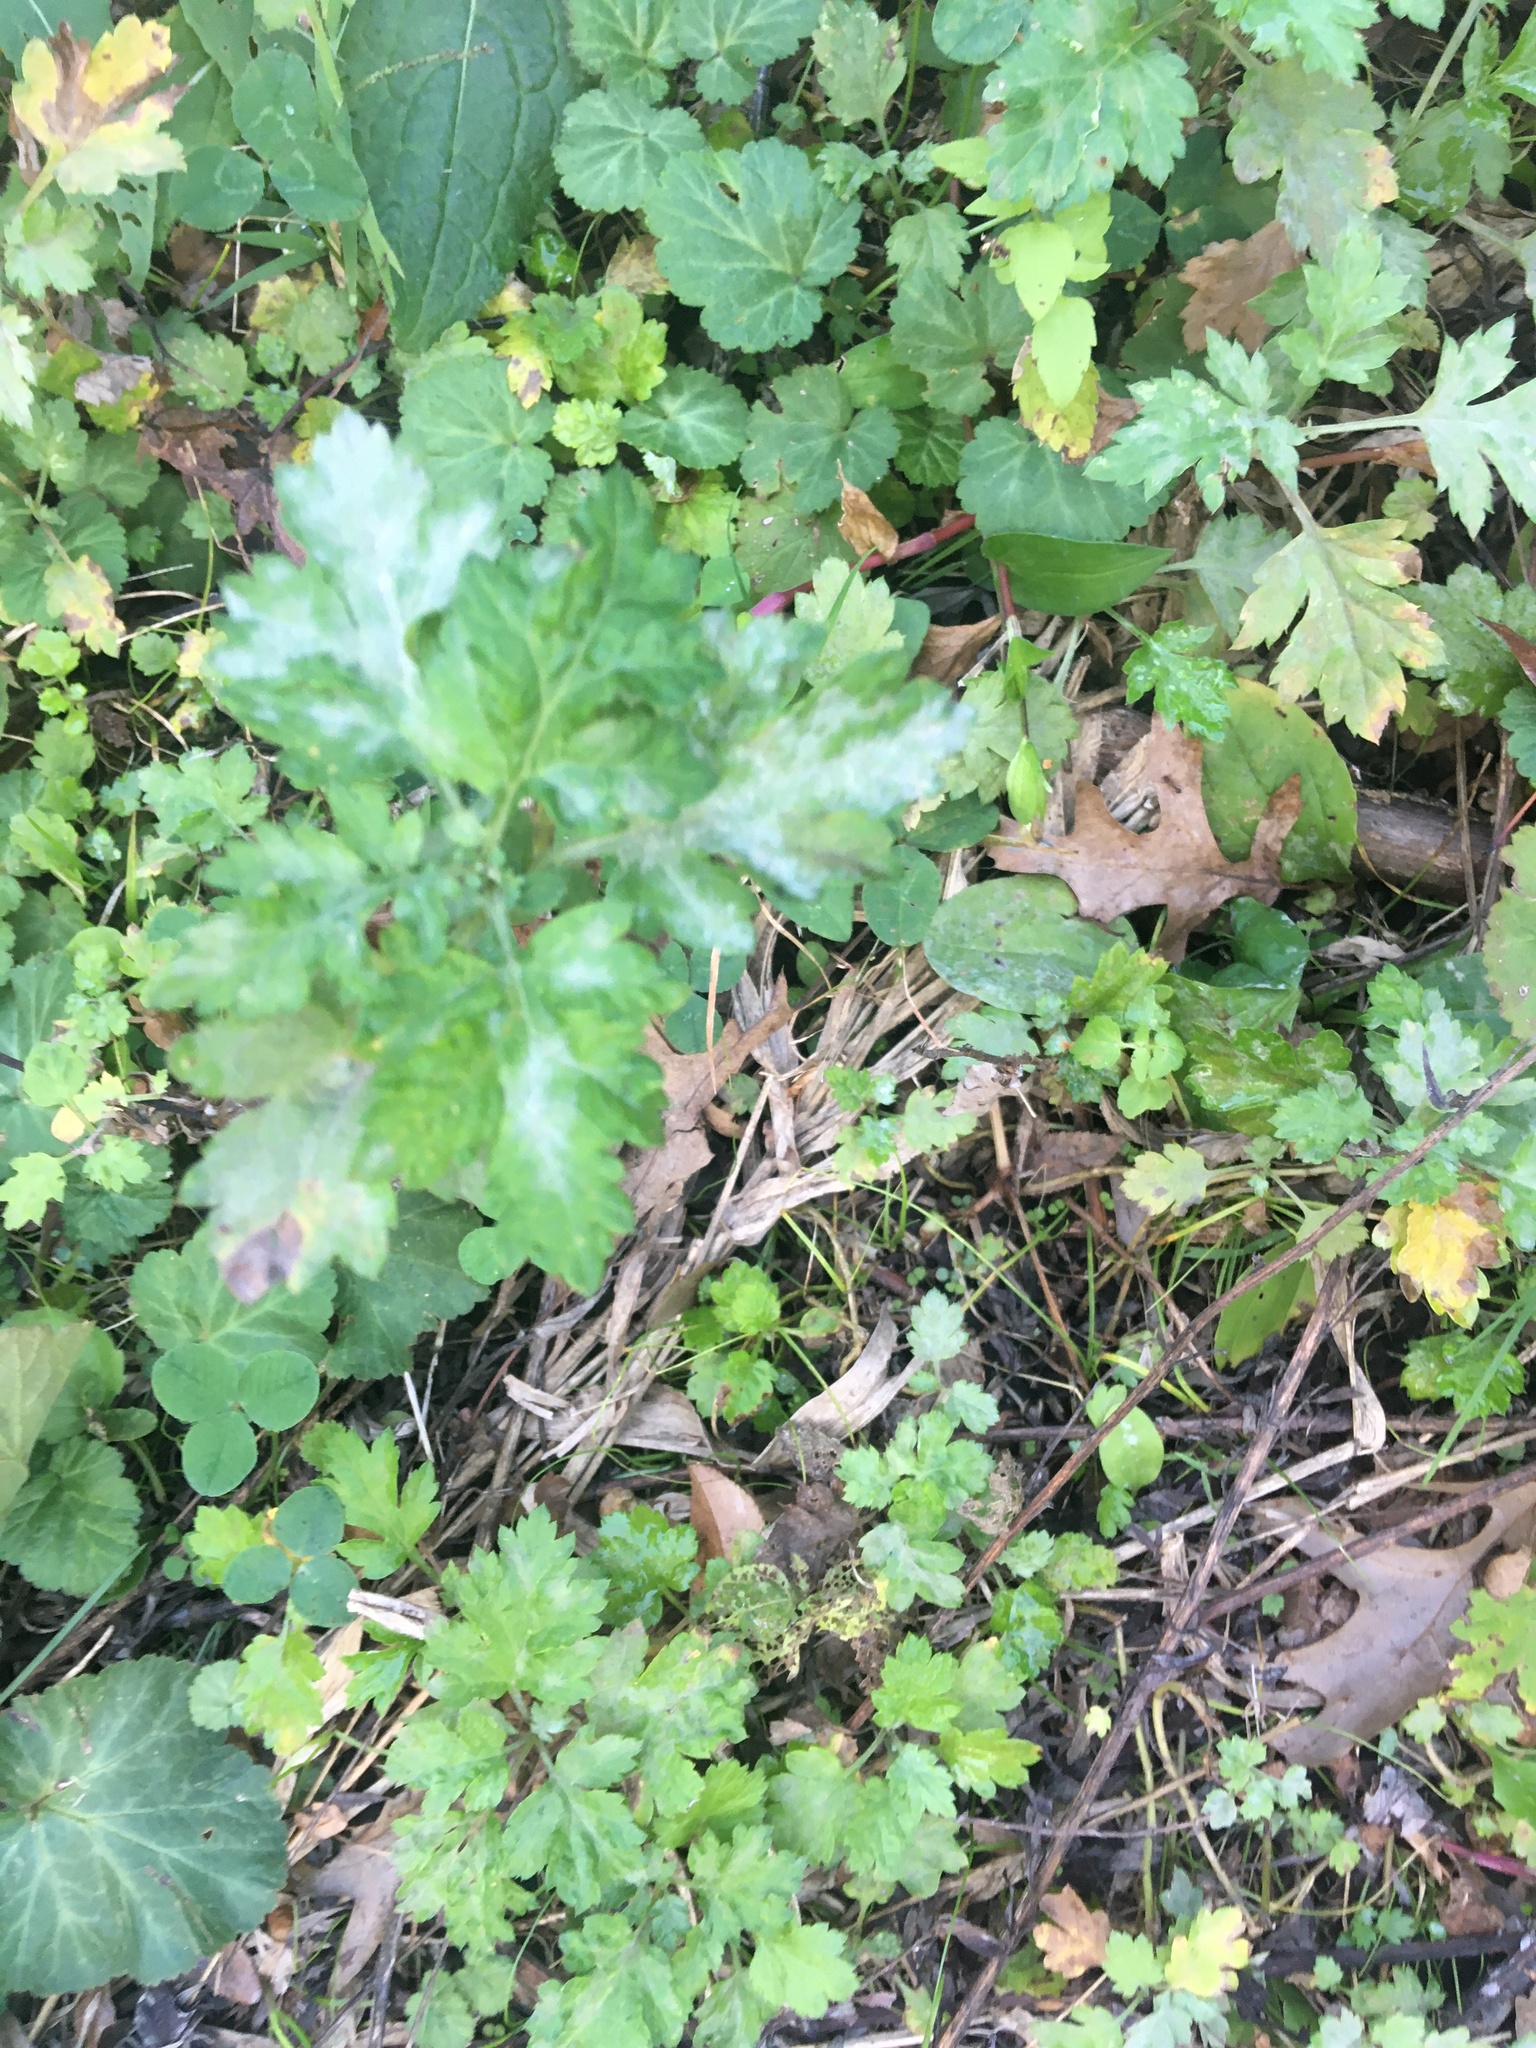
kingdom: Plantae
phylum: Tracheophyta
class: Magnoliopsida
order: Asterales
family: Asteraceae
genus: Artemisia
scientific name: Artemisia vulgaris
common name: Mugwort
